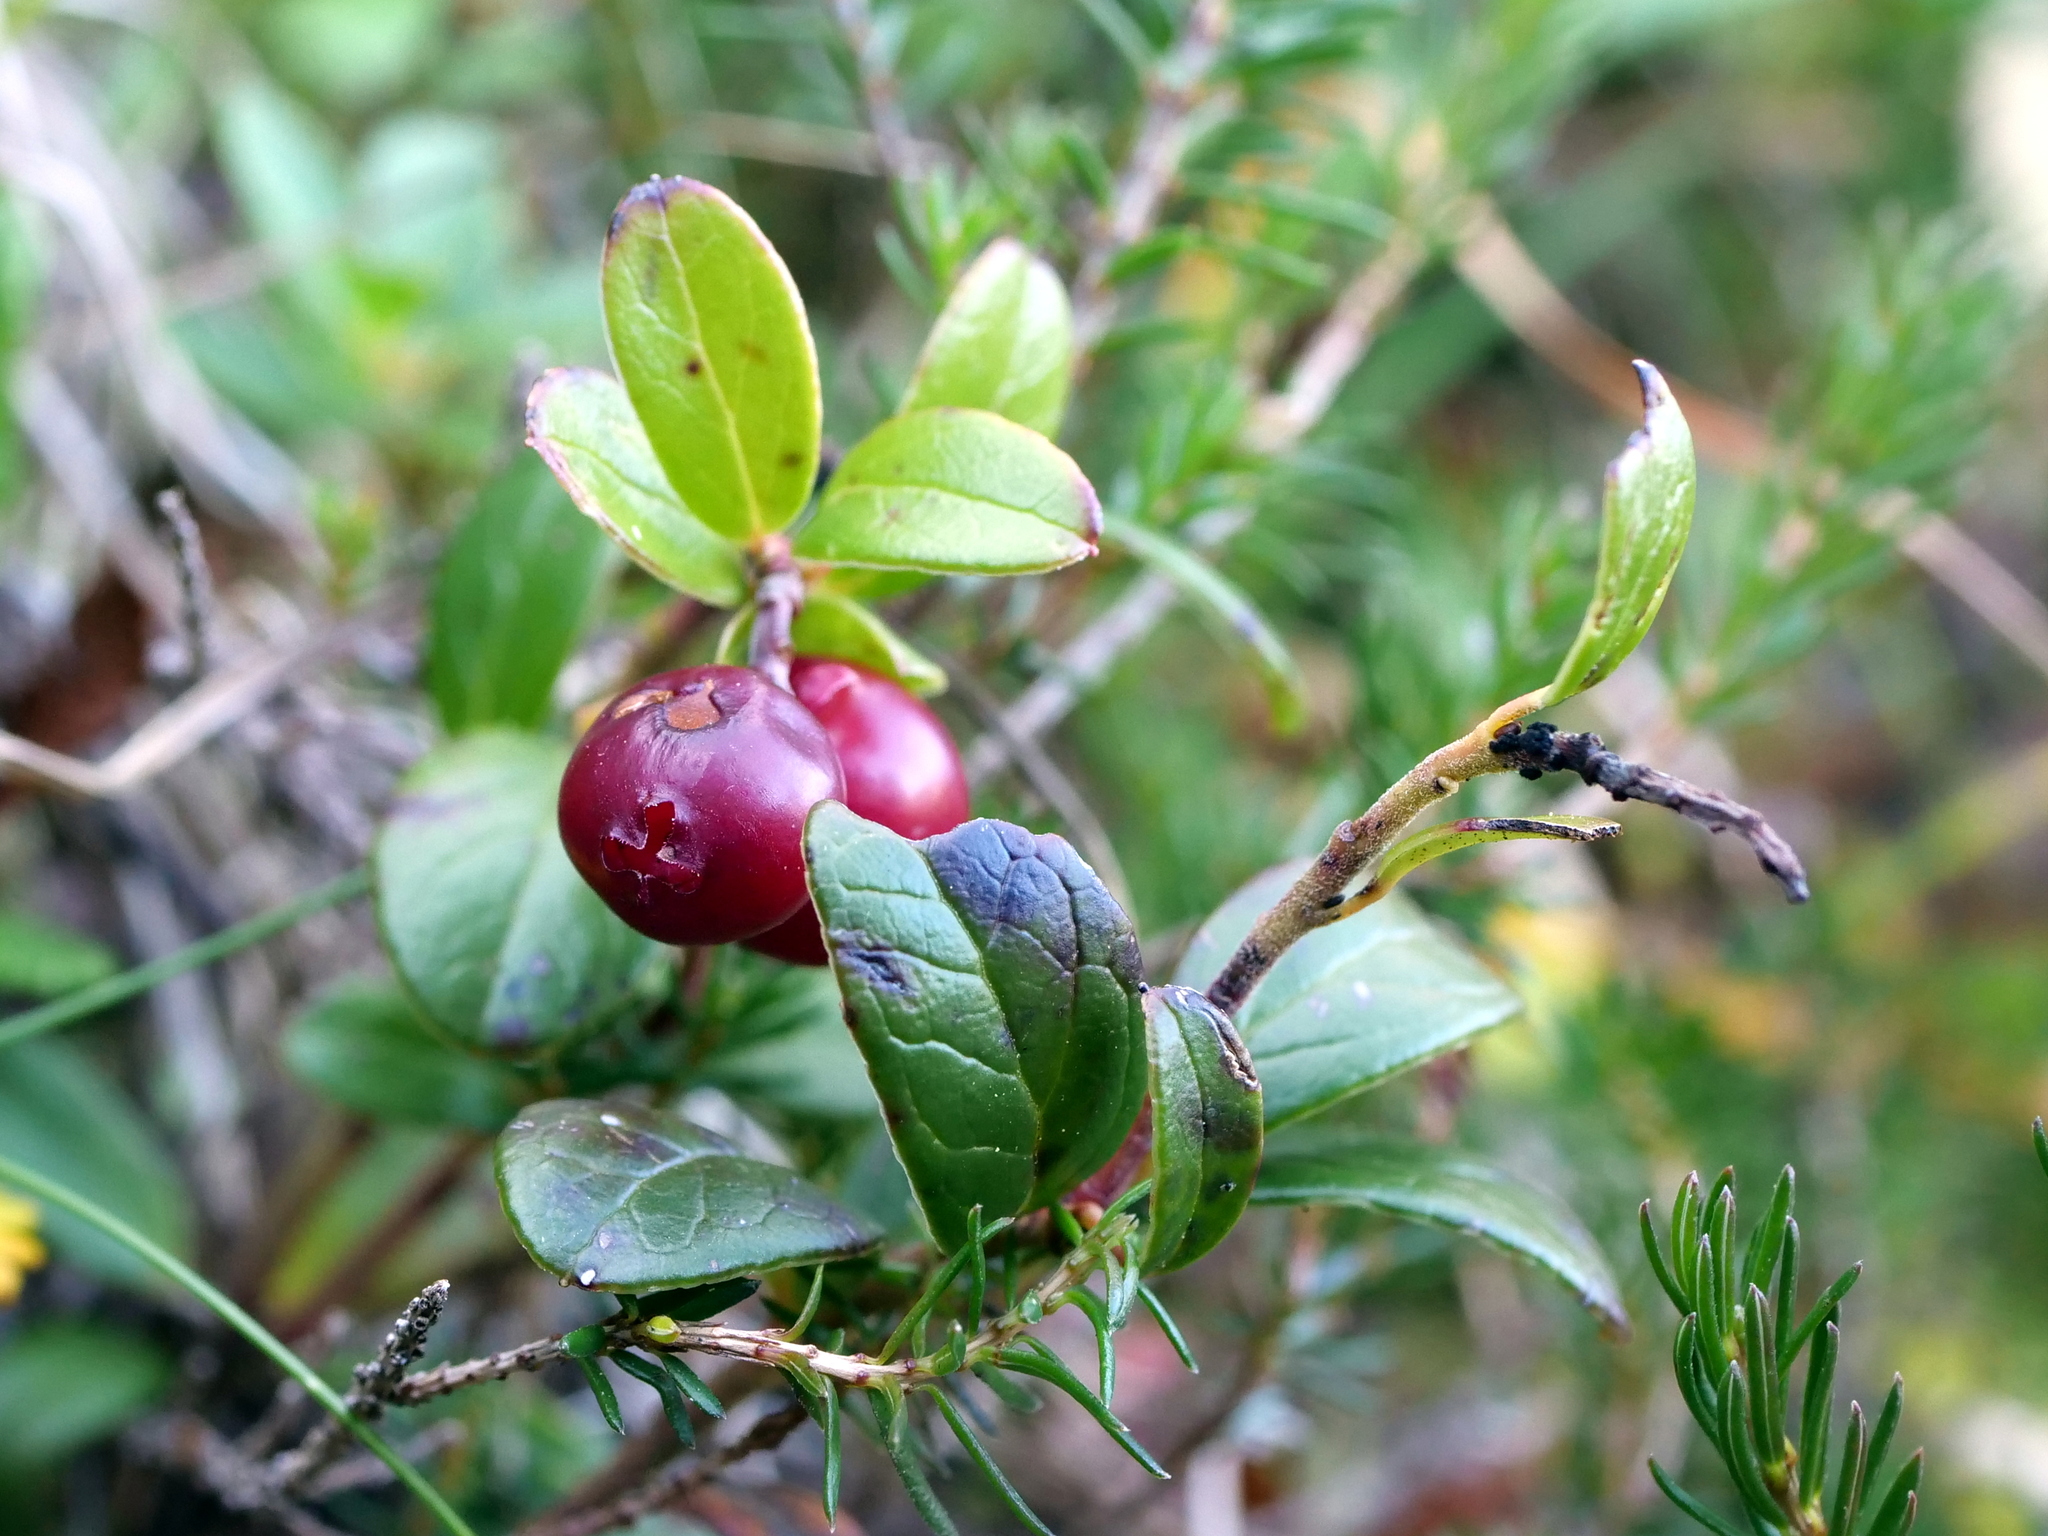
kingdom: Plantae
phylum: Tracheophyta
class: Magnoliopsida
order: Ericales
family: Ericaceae
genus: Vaccinium
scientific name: Vaccinium vitis-idaea
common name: Cowberry
